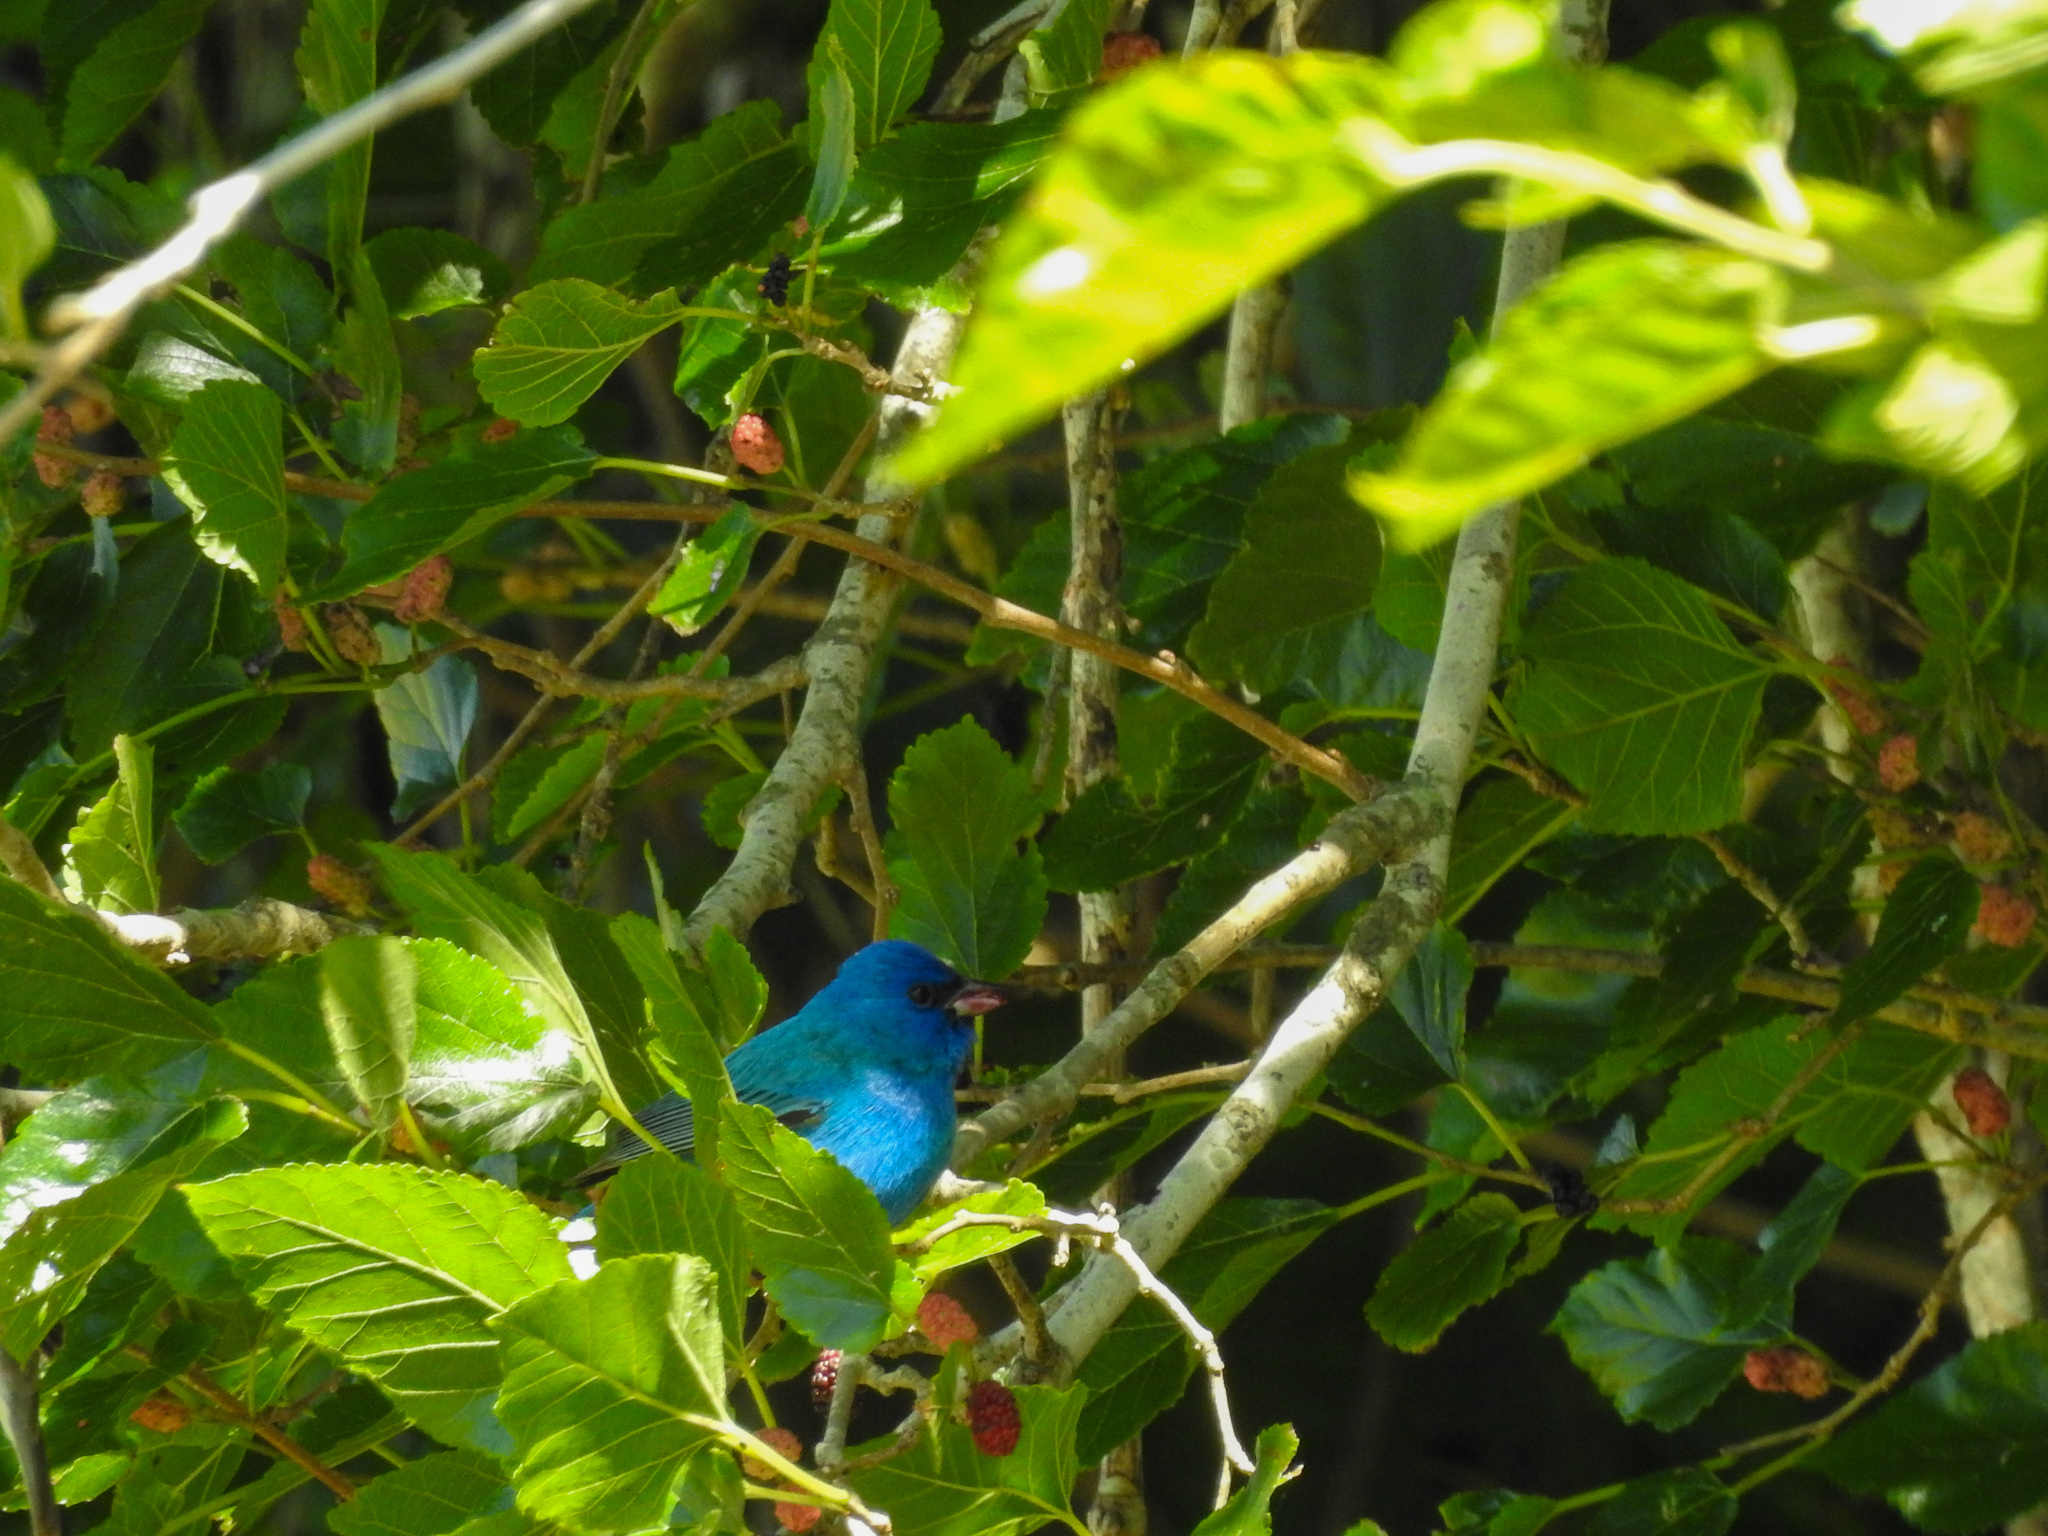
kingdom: Animalia
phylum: Chordata
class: Aves
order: Passeriformes
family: Cardinalidae
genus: Passerina
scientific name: Passerina cyanea
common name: Indigo bunting
